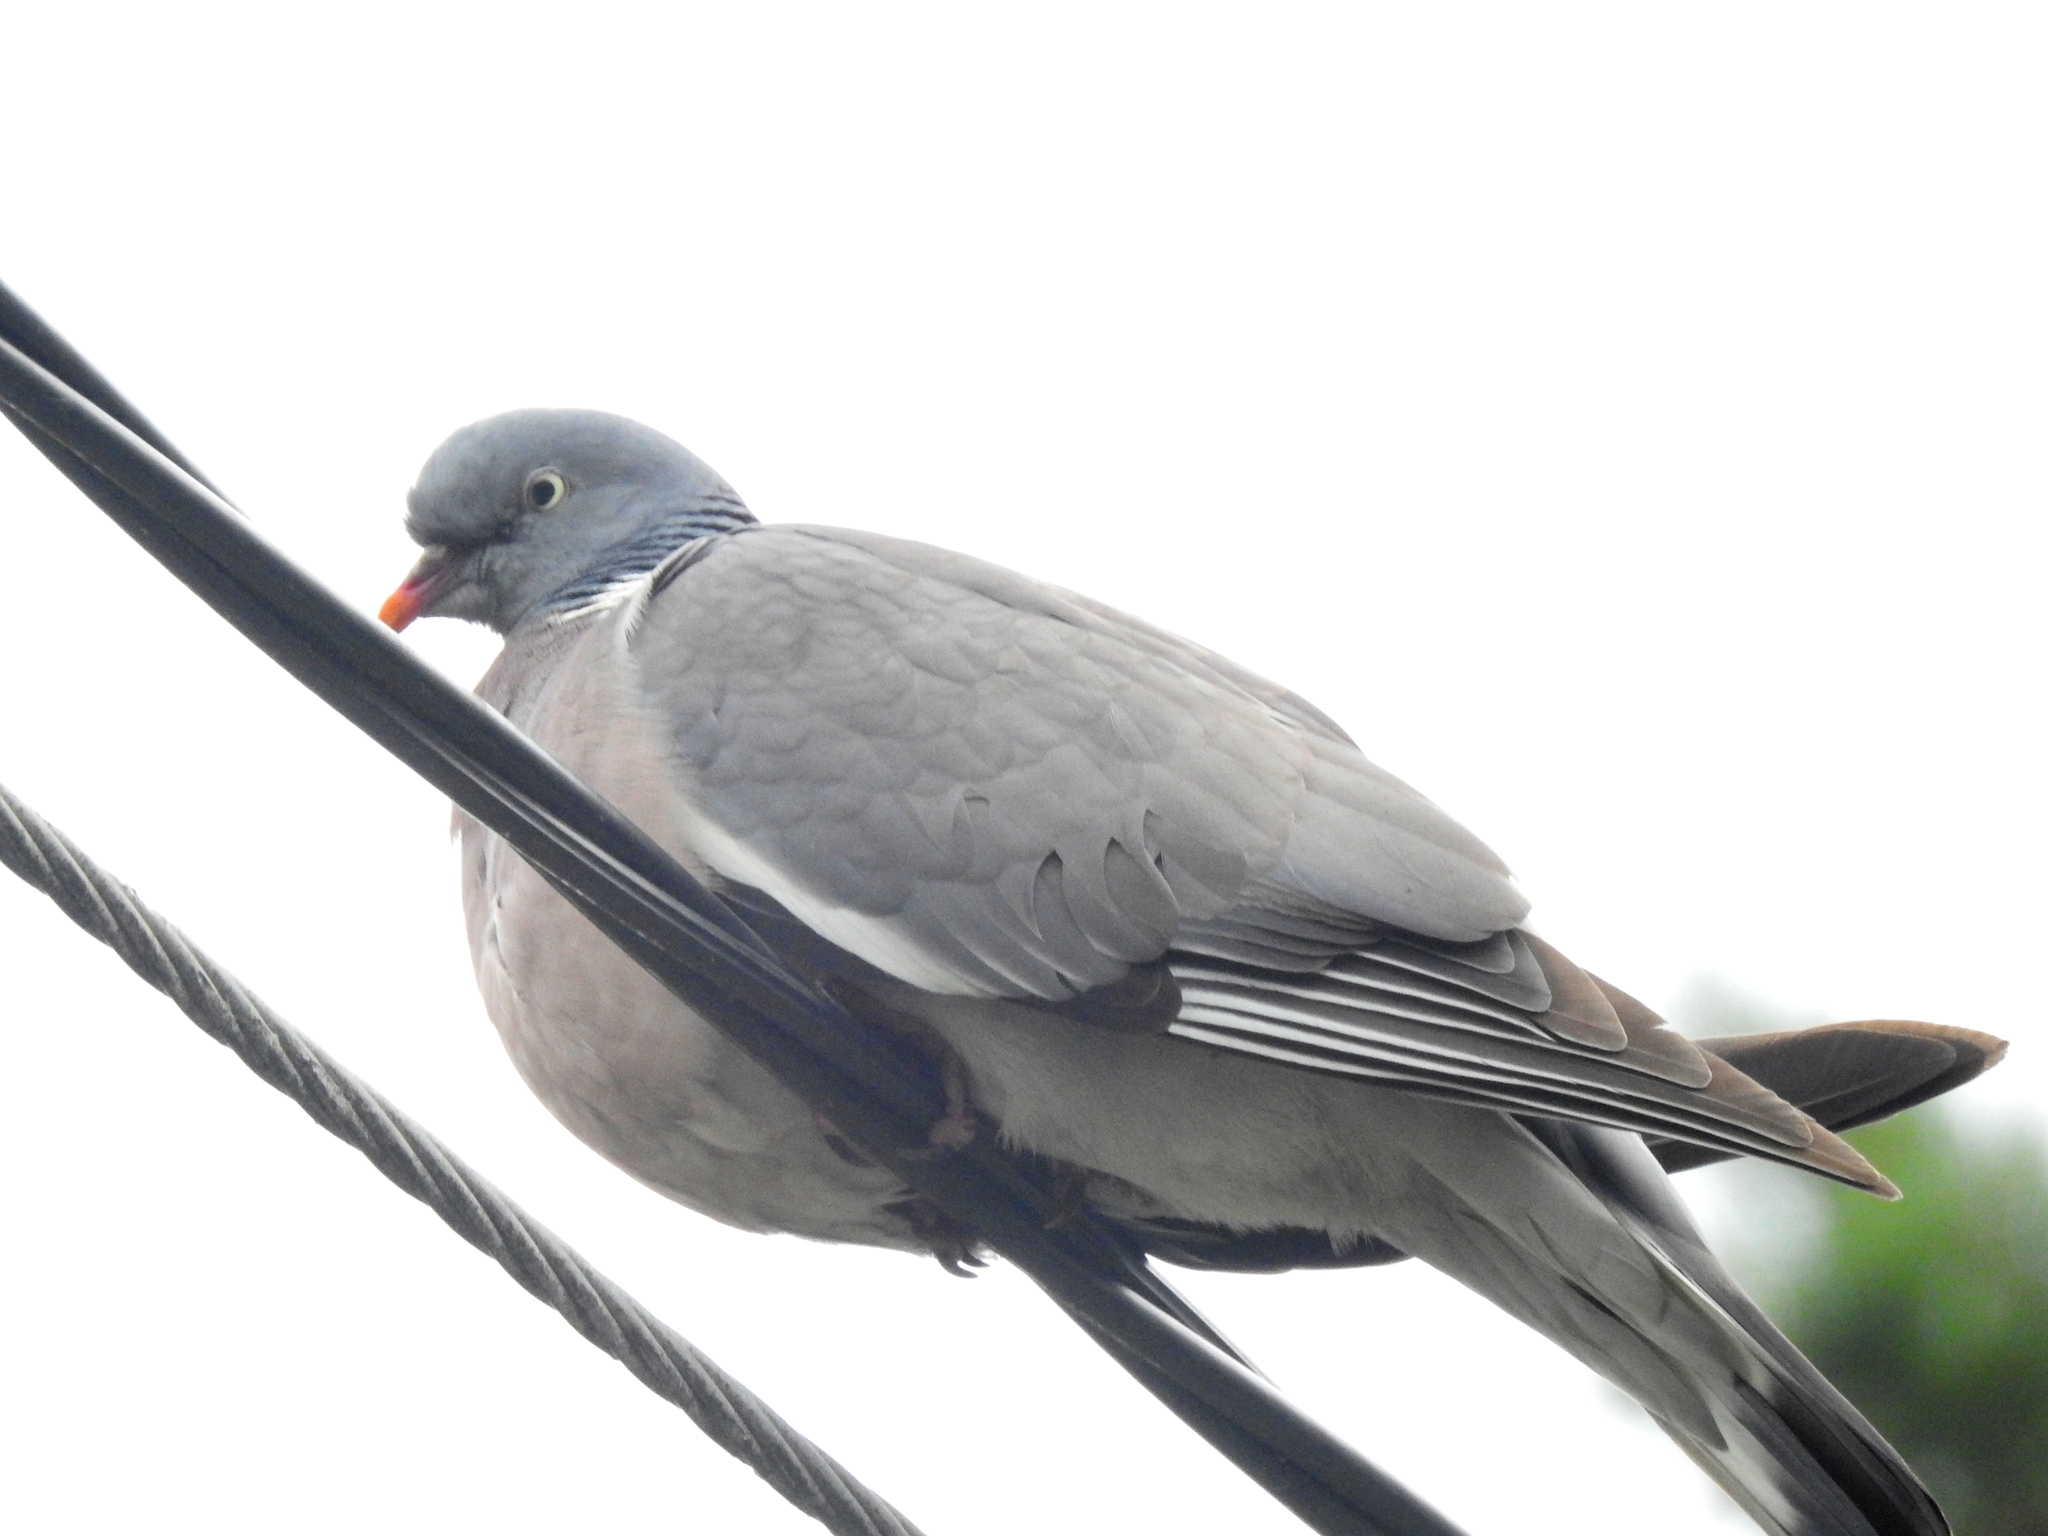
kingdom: Animalia
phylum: Chordata
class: Aves
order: Columbiformes
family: Columbidae
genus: Columba
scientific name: Columba palumbus
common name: Common wood pigeon
